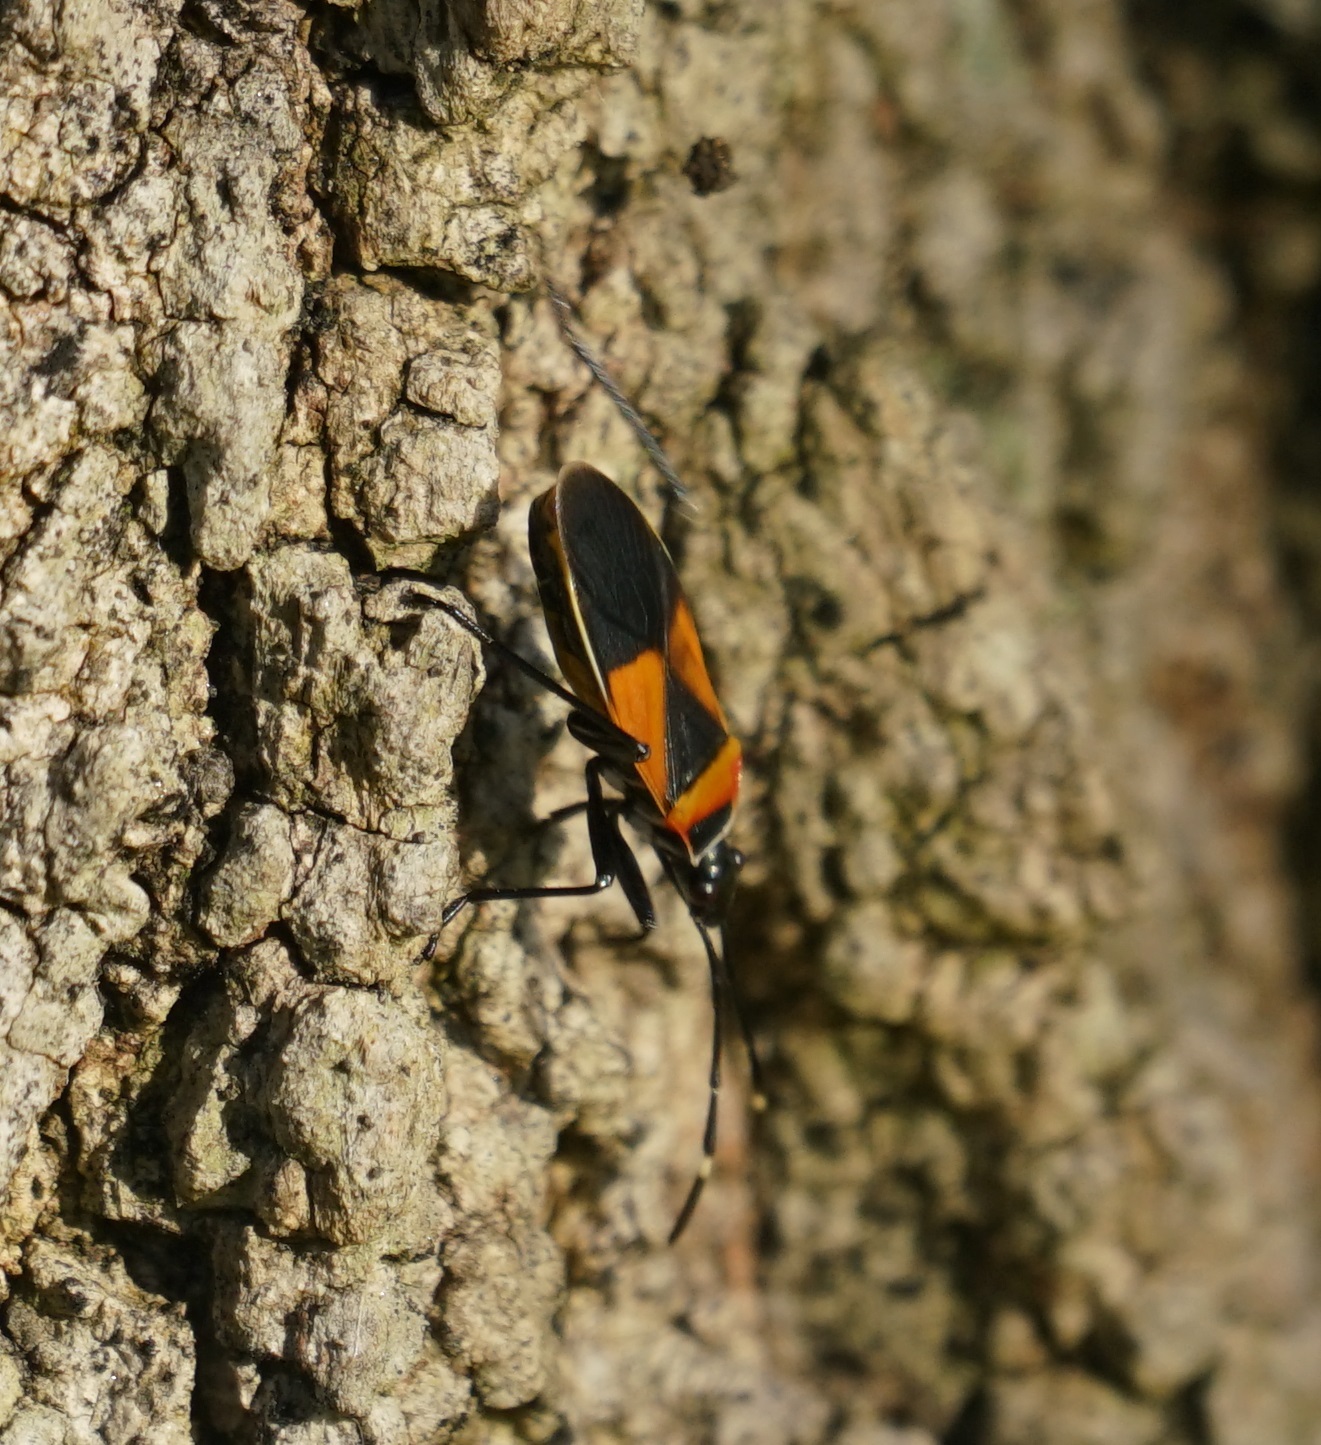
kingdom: Animalia
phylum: Arthropoda
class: Insecta
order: Hemiptera
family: Pyrrhocoridae
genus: Dindymus
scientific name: Dindymus
